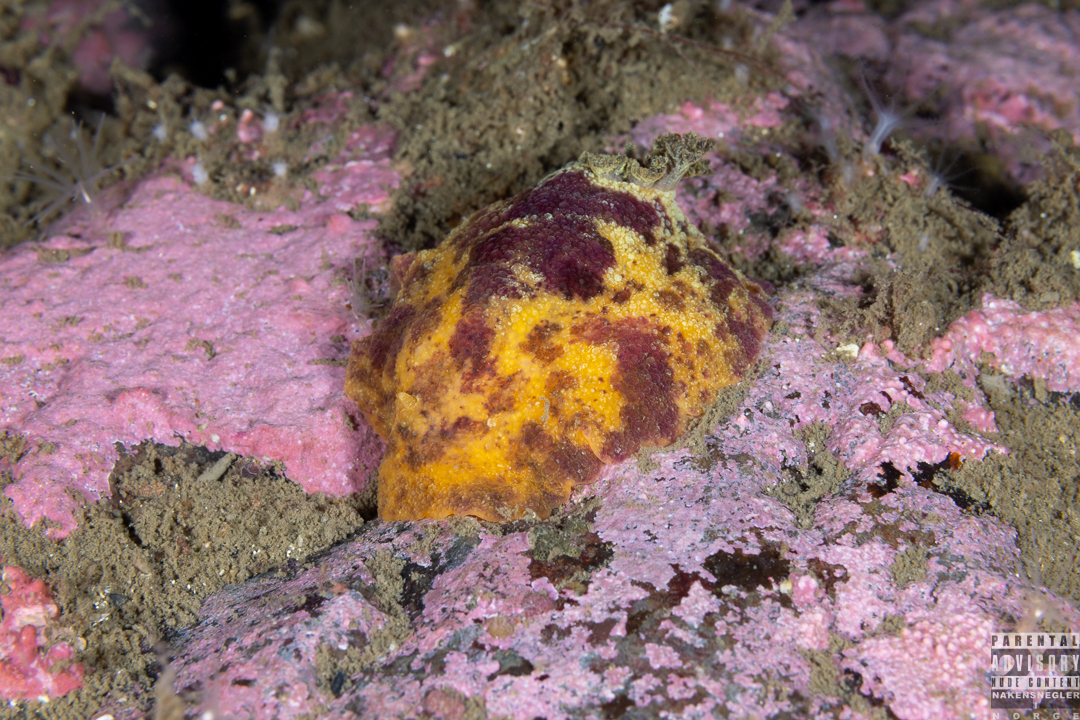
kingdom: Animalia
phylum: Mollusca
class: Gastropoda
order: Nudibranchia
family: Dorididae
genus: Doris
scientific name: Doris pseudoargus
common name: Sea lemon
